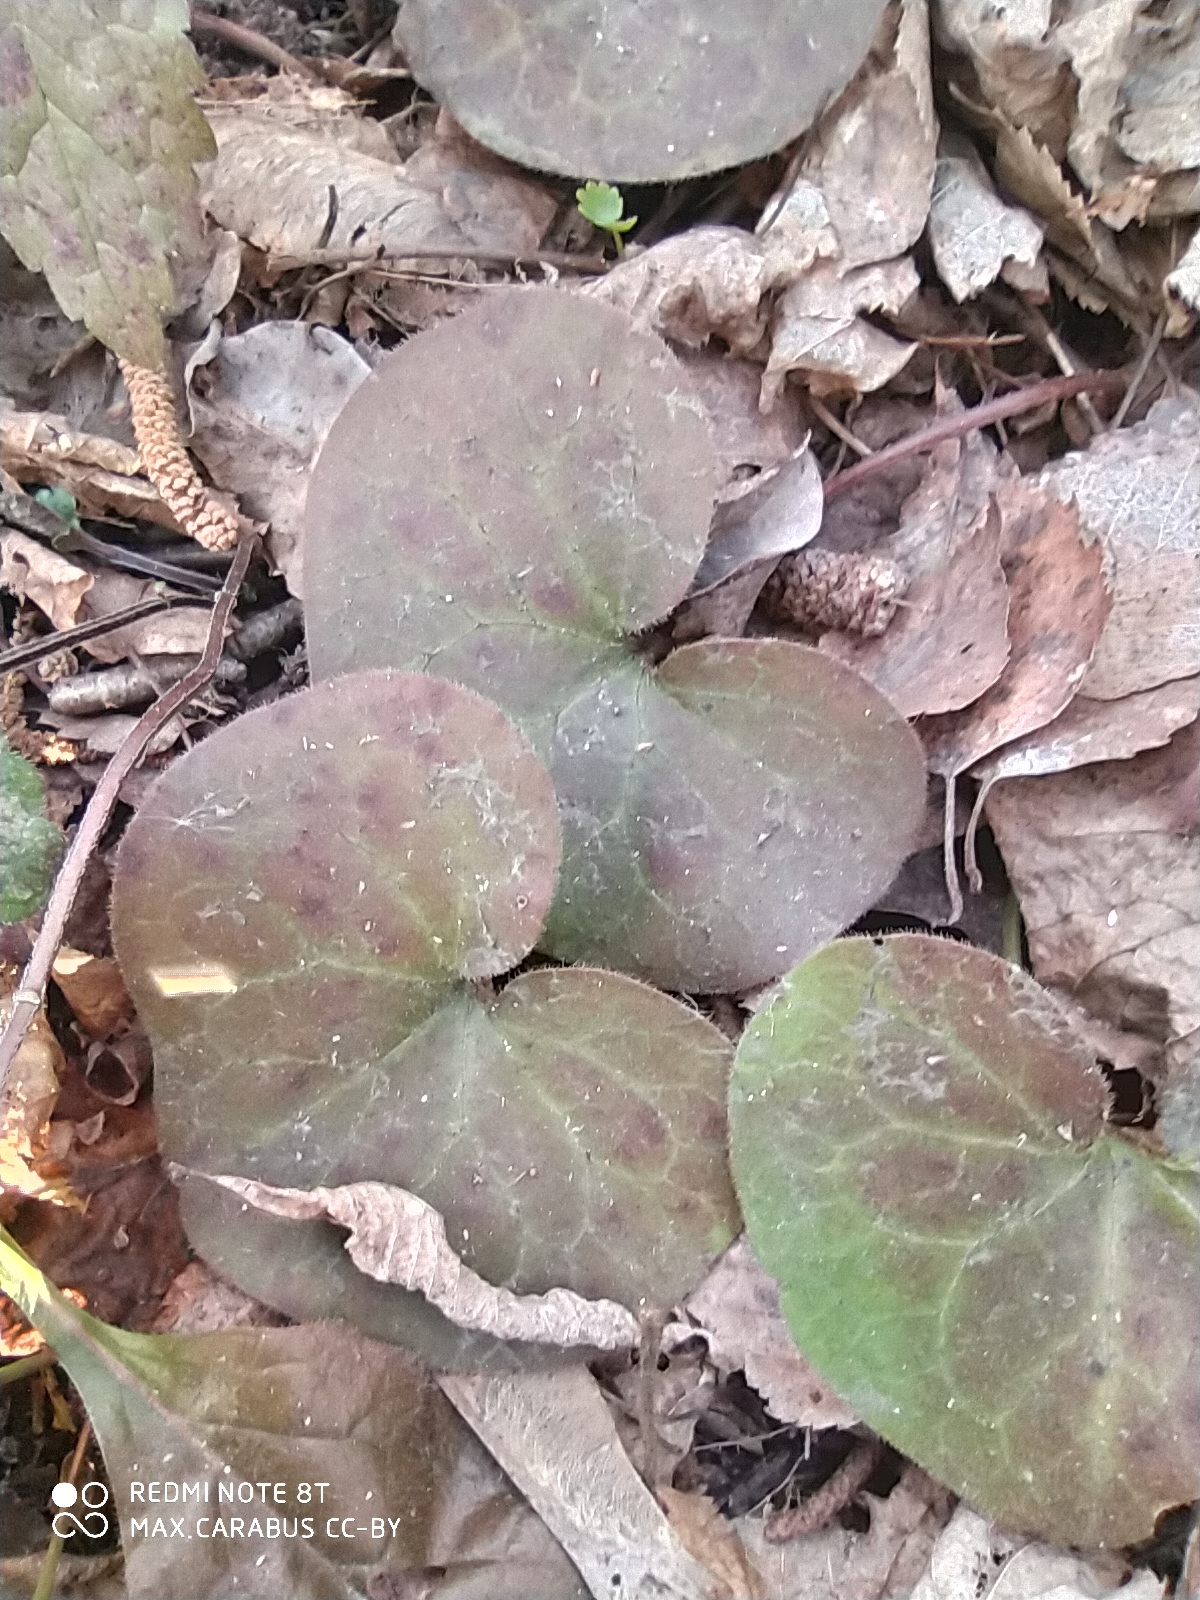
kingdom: Plantae
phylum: Tracheophyta
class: Magnoliopsida
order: Piperales
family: Aristolochiaceae
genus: Asarum
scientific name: Asarum europaeum
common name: Asarabacca
